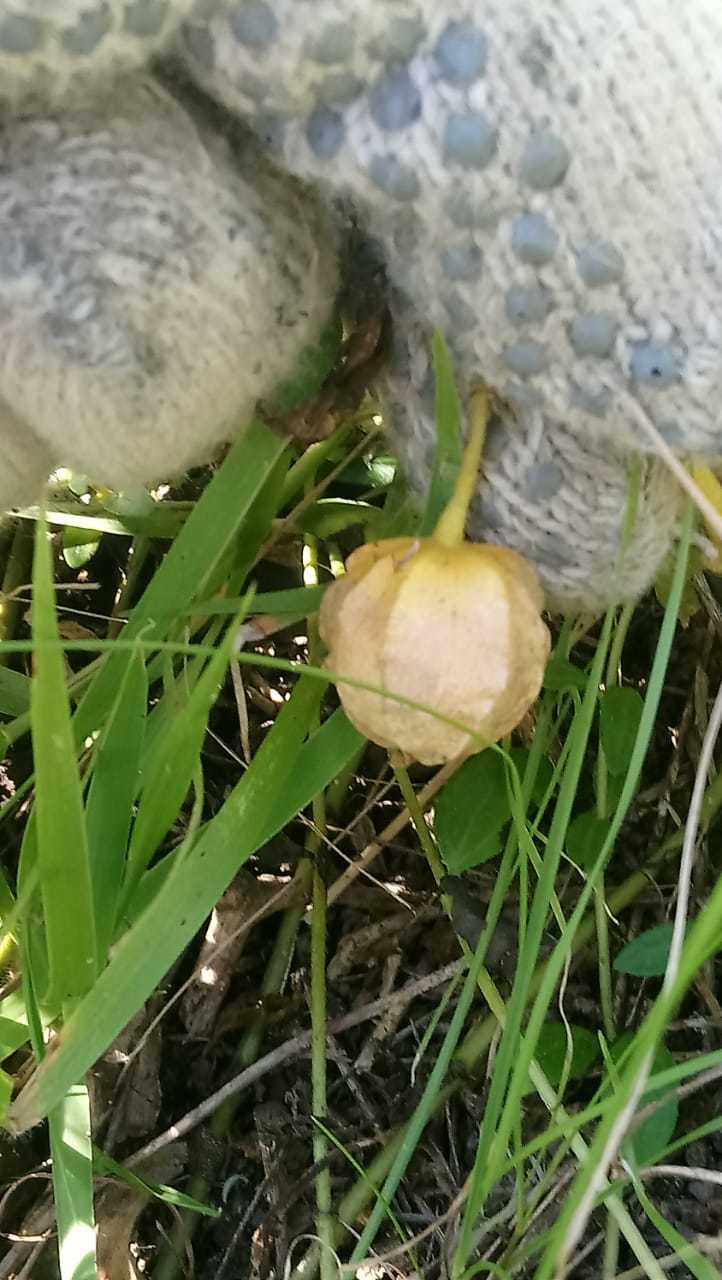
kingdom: Plantae
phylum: Tracheophyta
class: Magnoliopsida
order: Solanales
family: Solanaceae
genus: Physalis
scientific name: Physalis viscosa
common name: Stellate ground-cherry
